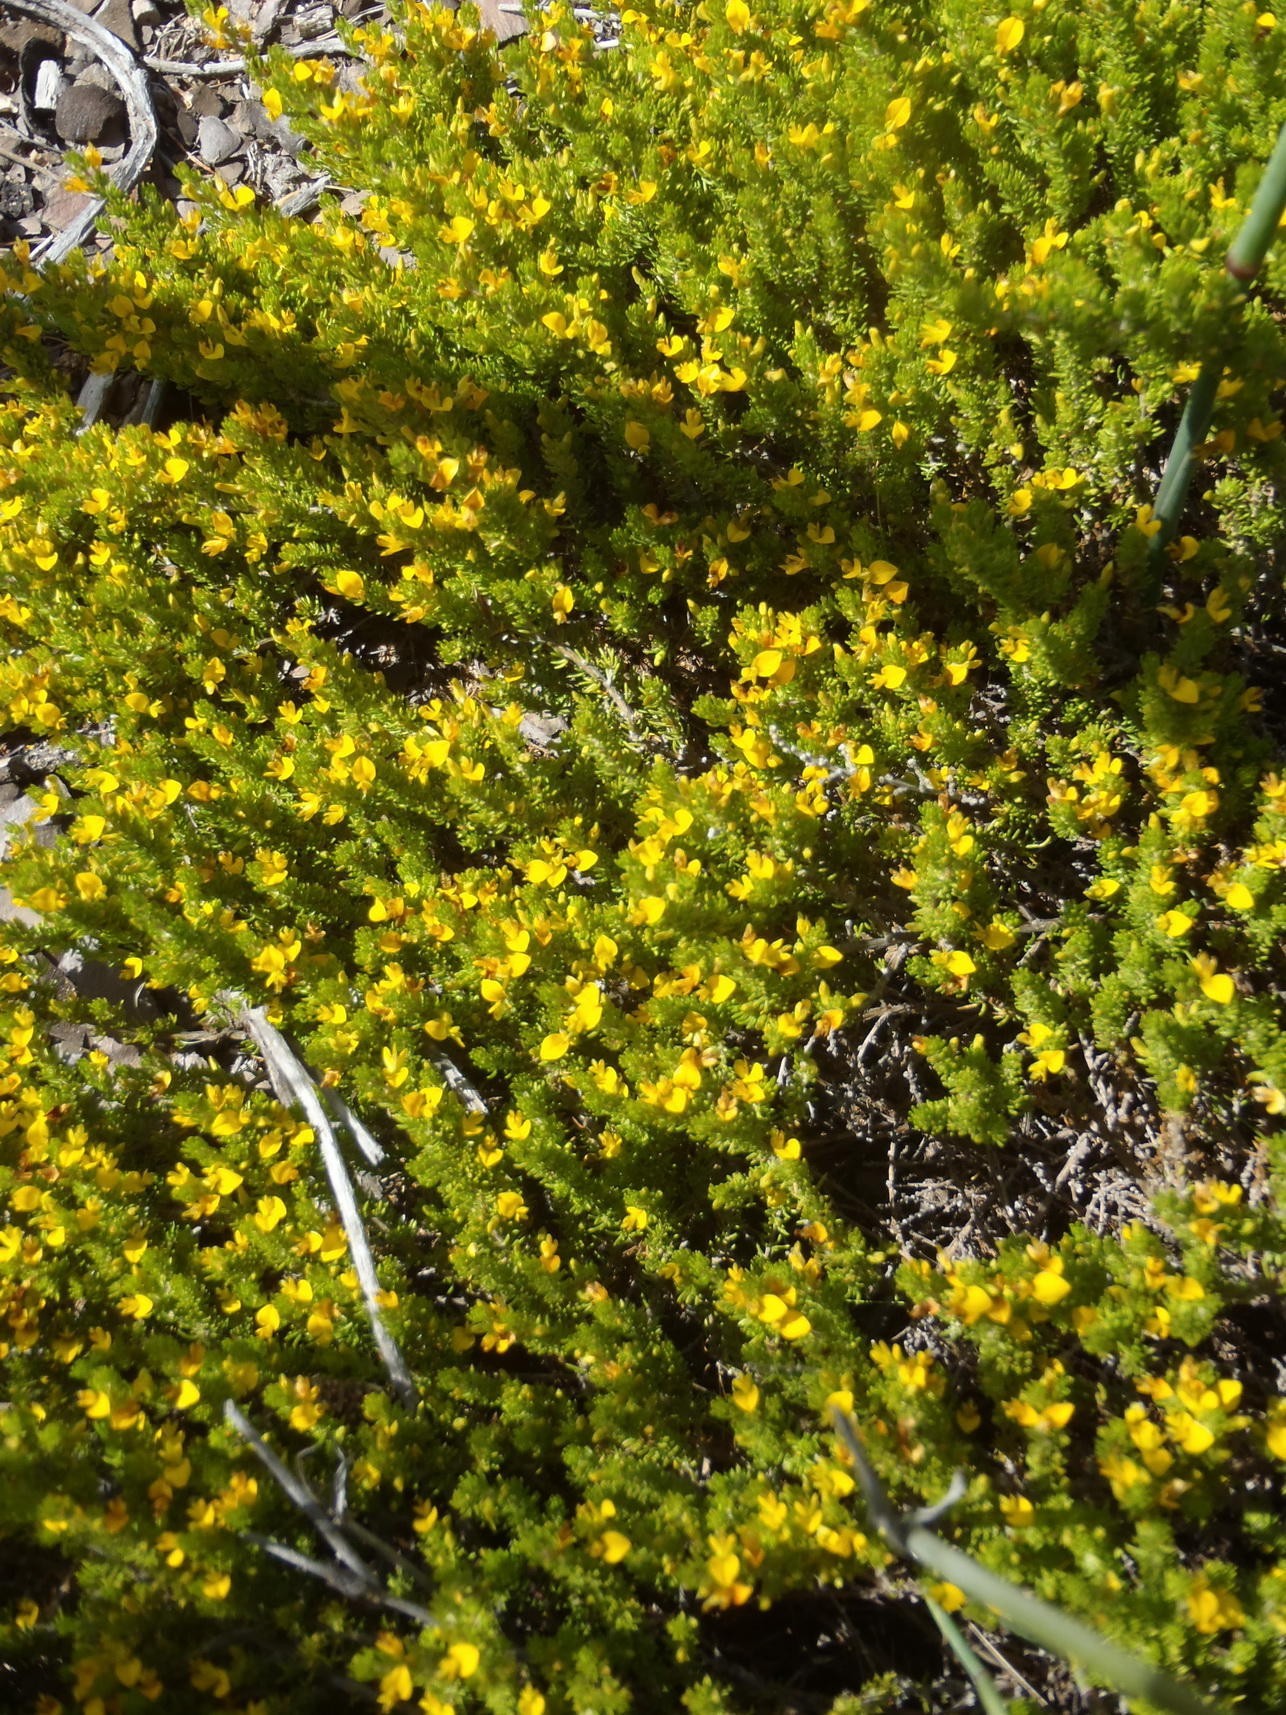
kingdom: Plantae
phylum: Tracheophyta
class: Magnoliopsida
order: Fabales
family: Fabaceae
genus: Aspalathus
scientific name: Aspalathus subtingens
